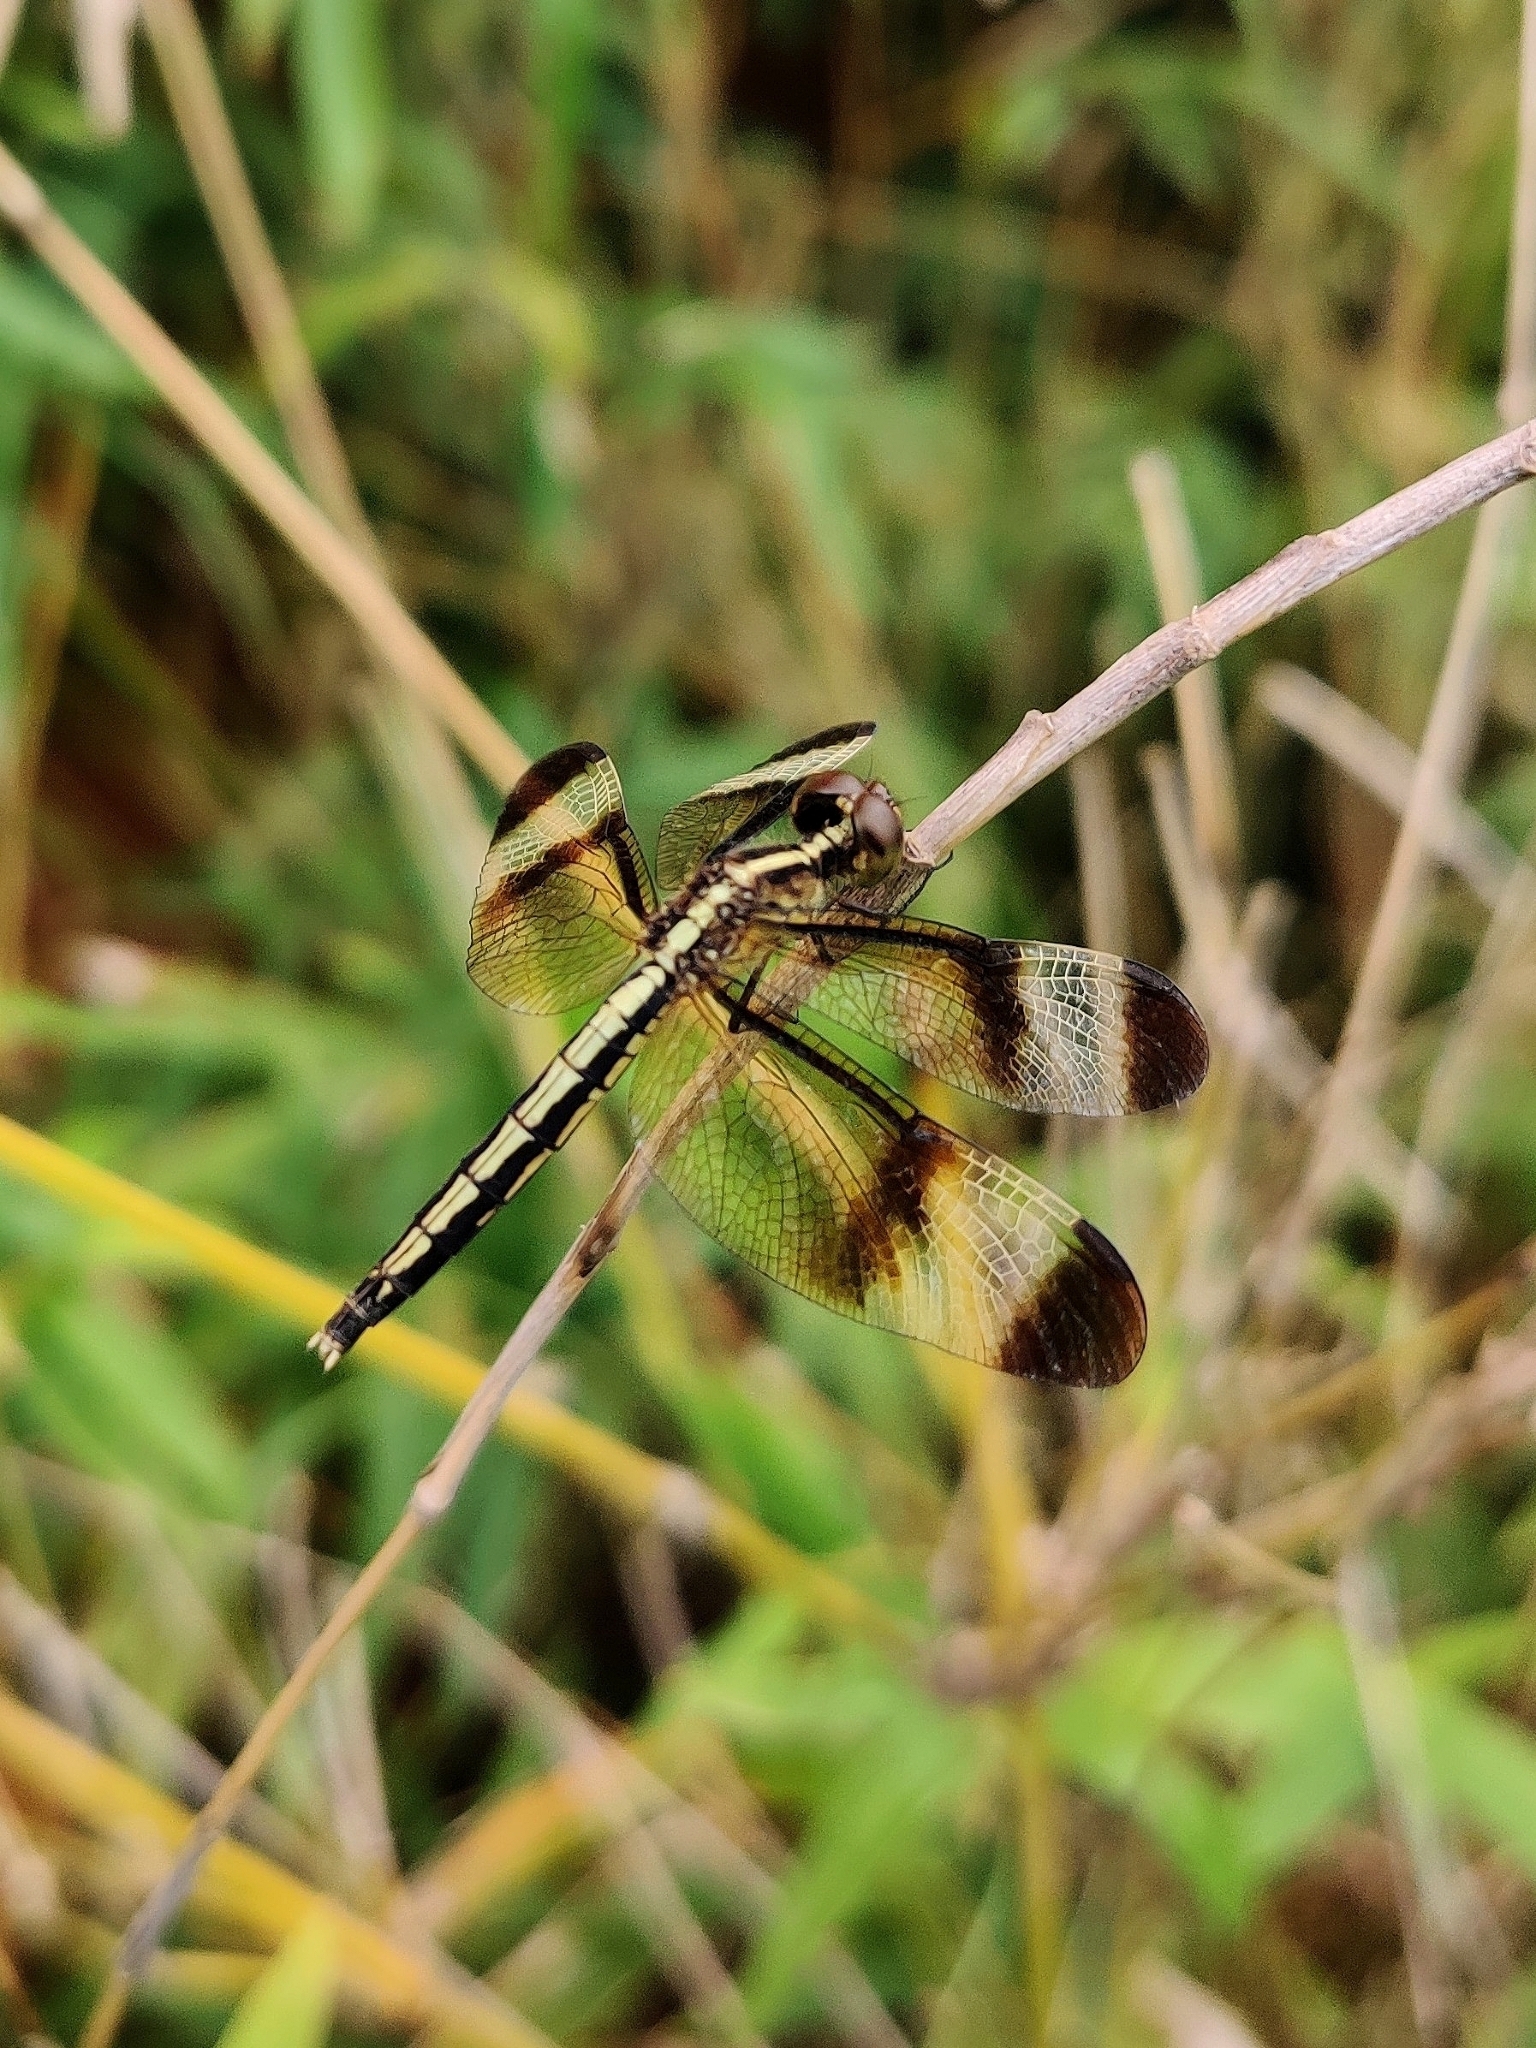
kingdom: Animalia
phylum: Arthropoda
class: Insecta
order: Odonata
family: Libellulidae
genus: Neurothemis
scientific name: Neurothemis tullia
